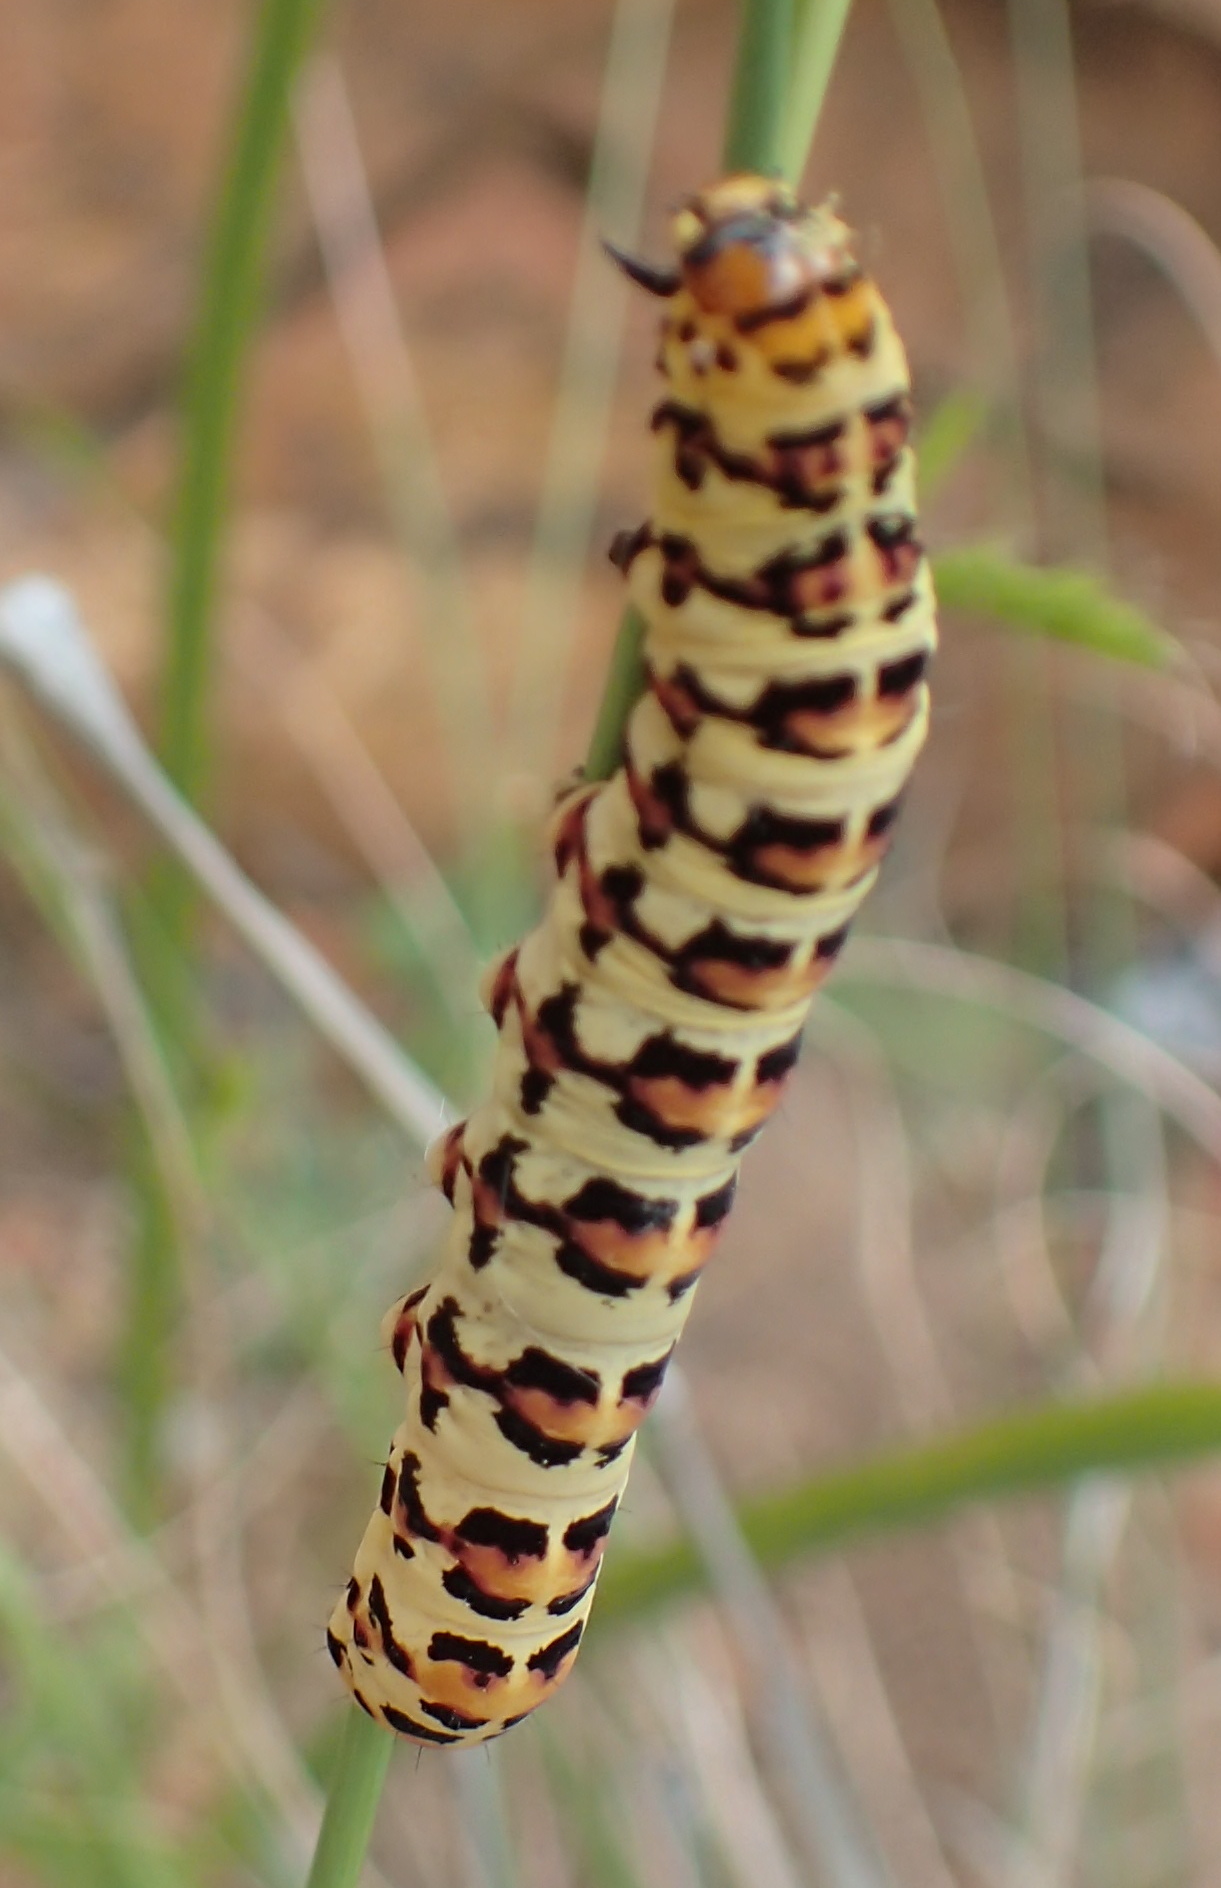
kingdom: Animalia
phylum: Arthropoda
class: Insecta
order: Lepidoptera
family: Noctuidae
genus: Diaphone
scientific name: Diaphone eumela
